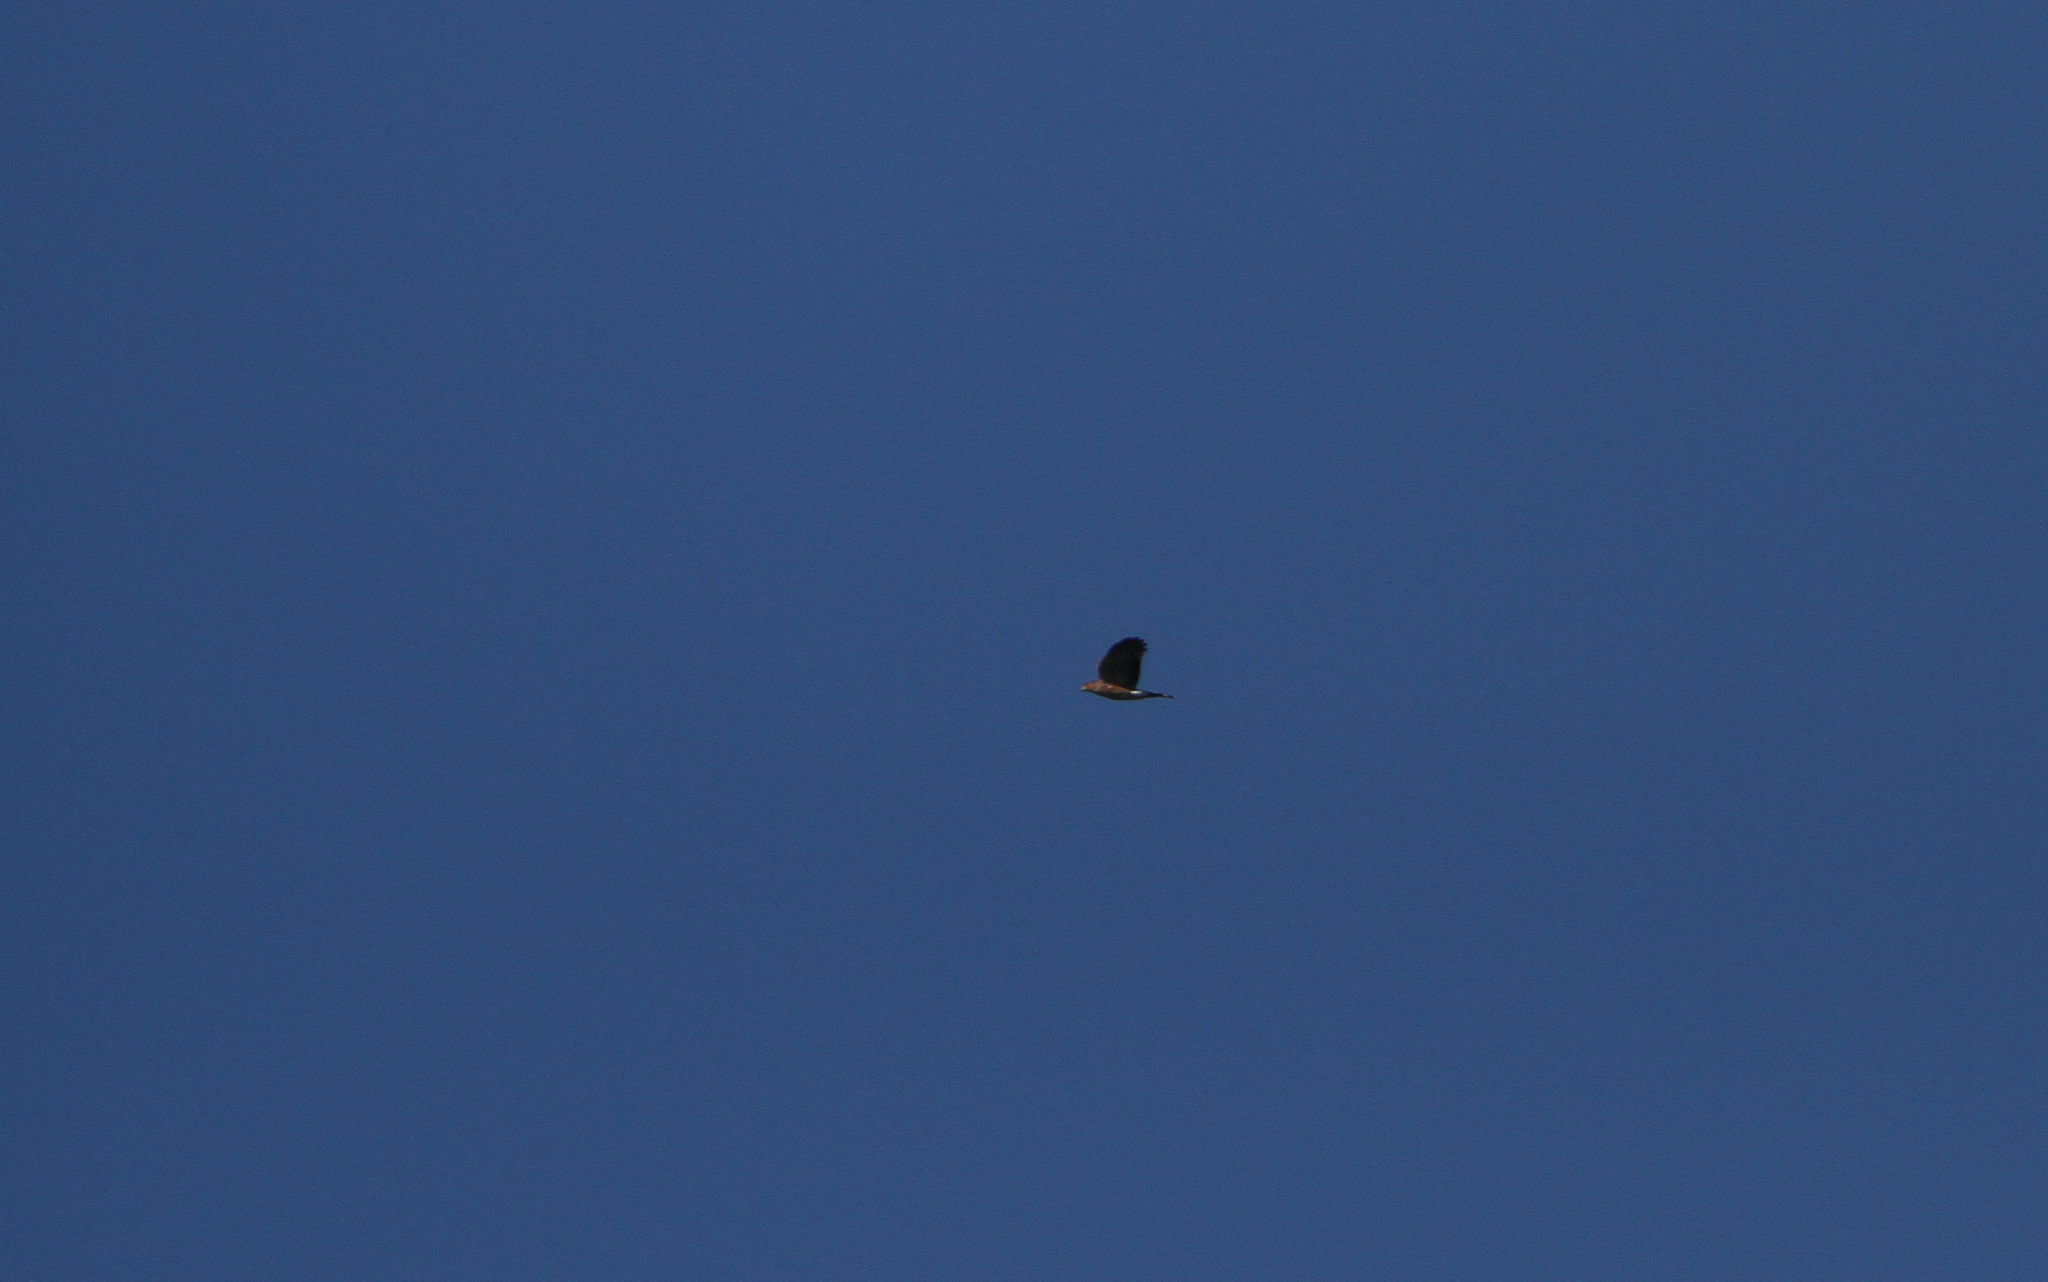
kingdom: Animalia
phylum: Chordata
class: Aves
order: Accipitriformes
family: Accipitridae
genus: Accipiter
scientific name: Accipiter striatus
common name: Sharp-shinned hawk
